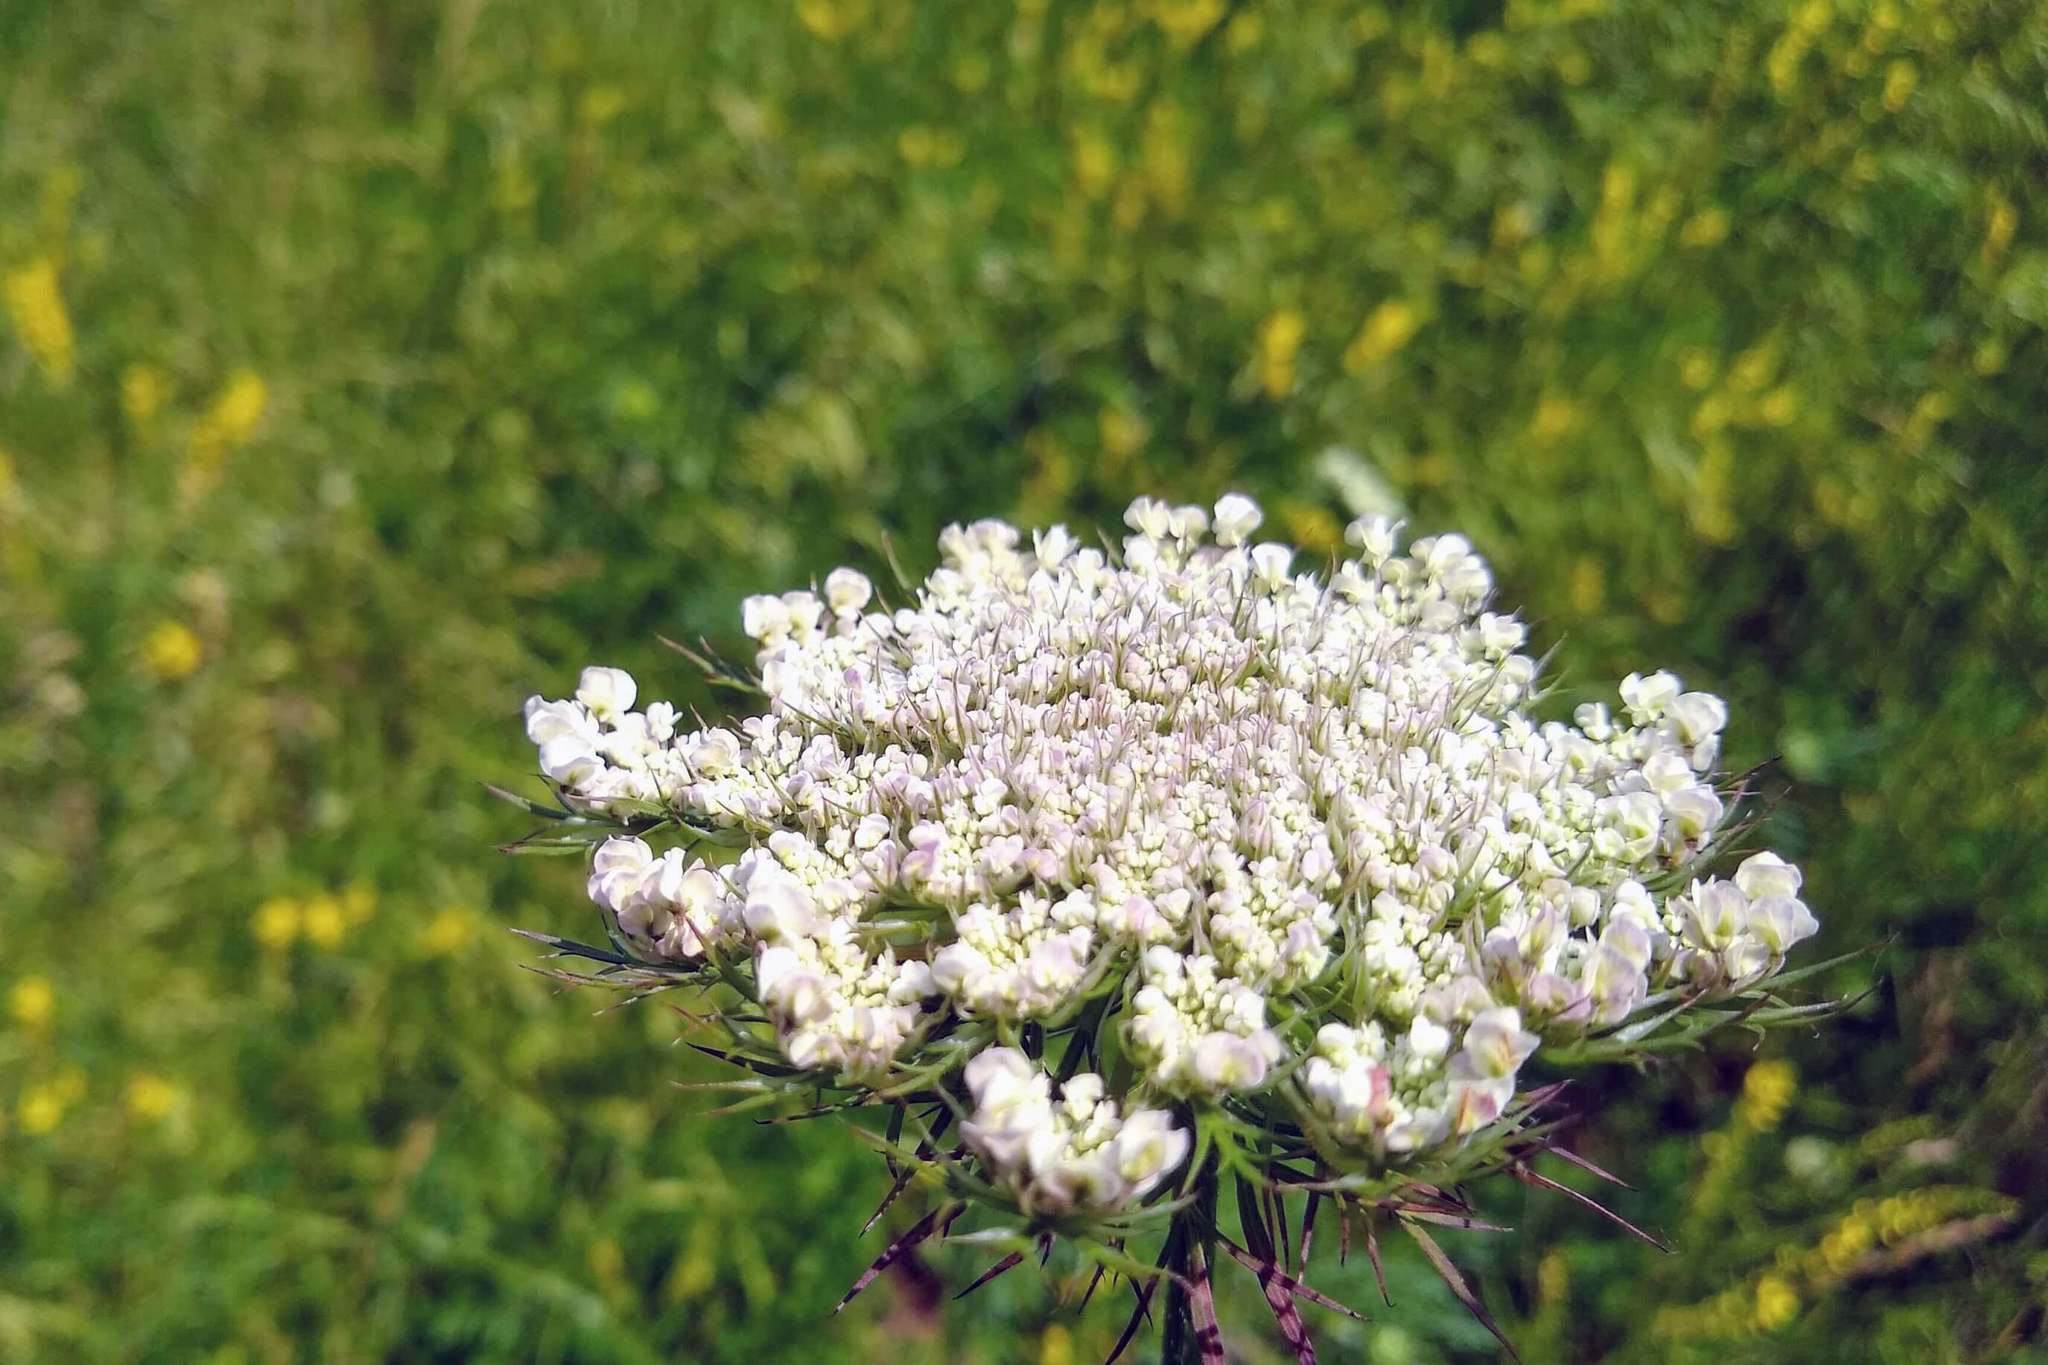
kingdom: Plantae
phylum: Tracheophyta
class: Magnoliopsida
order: Apiales
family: Apiaceae
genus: Daucus
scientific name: Daucus carota
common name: Wild carrot
